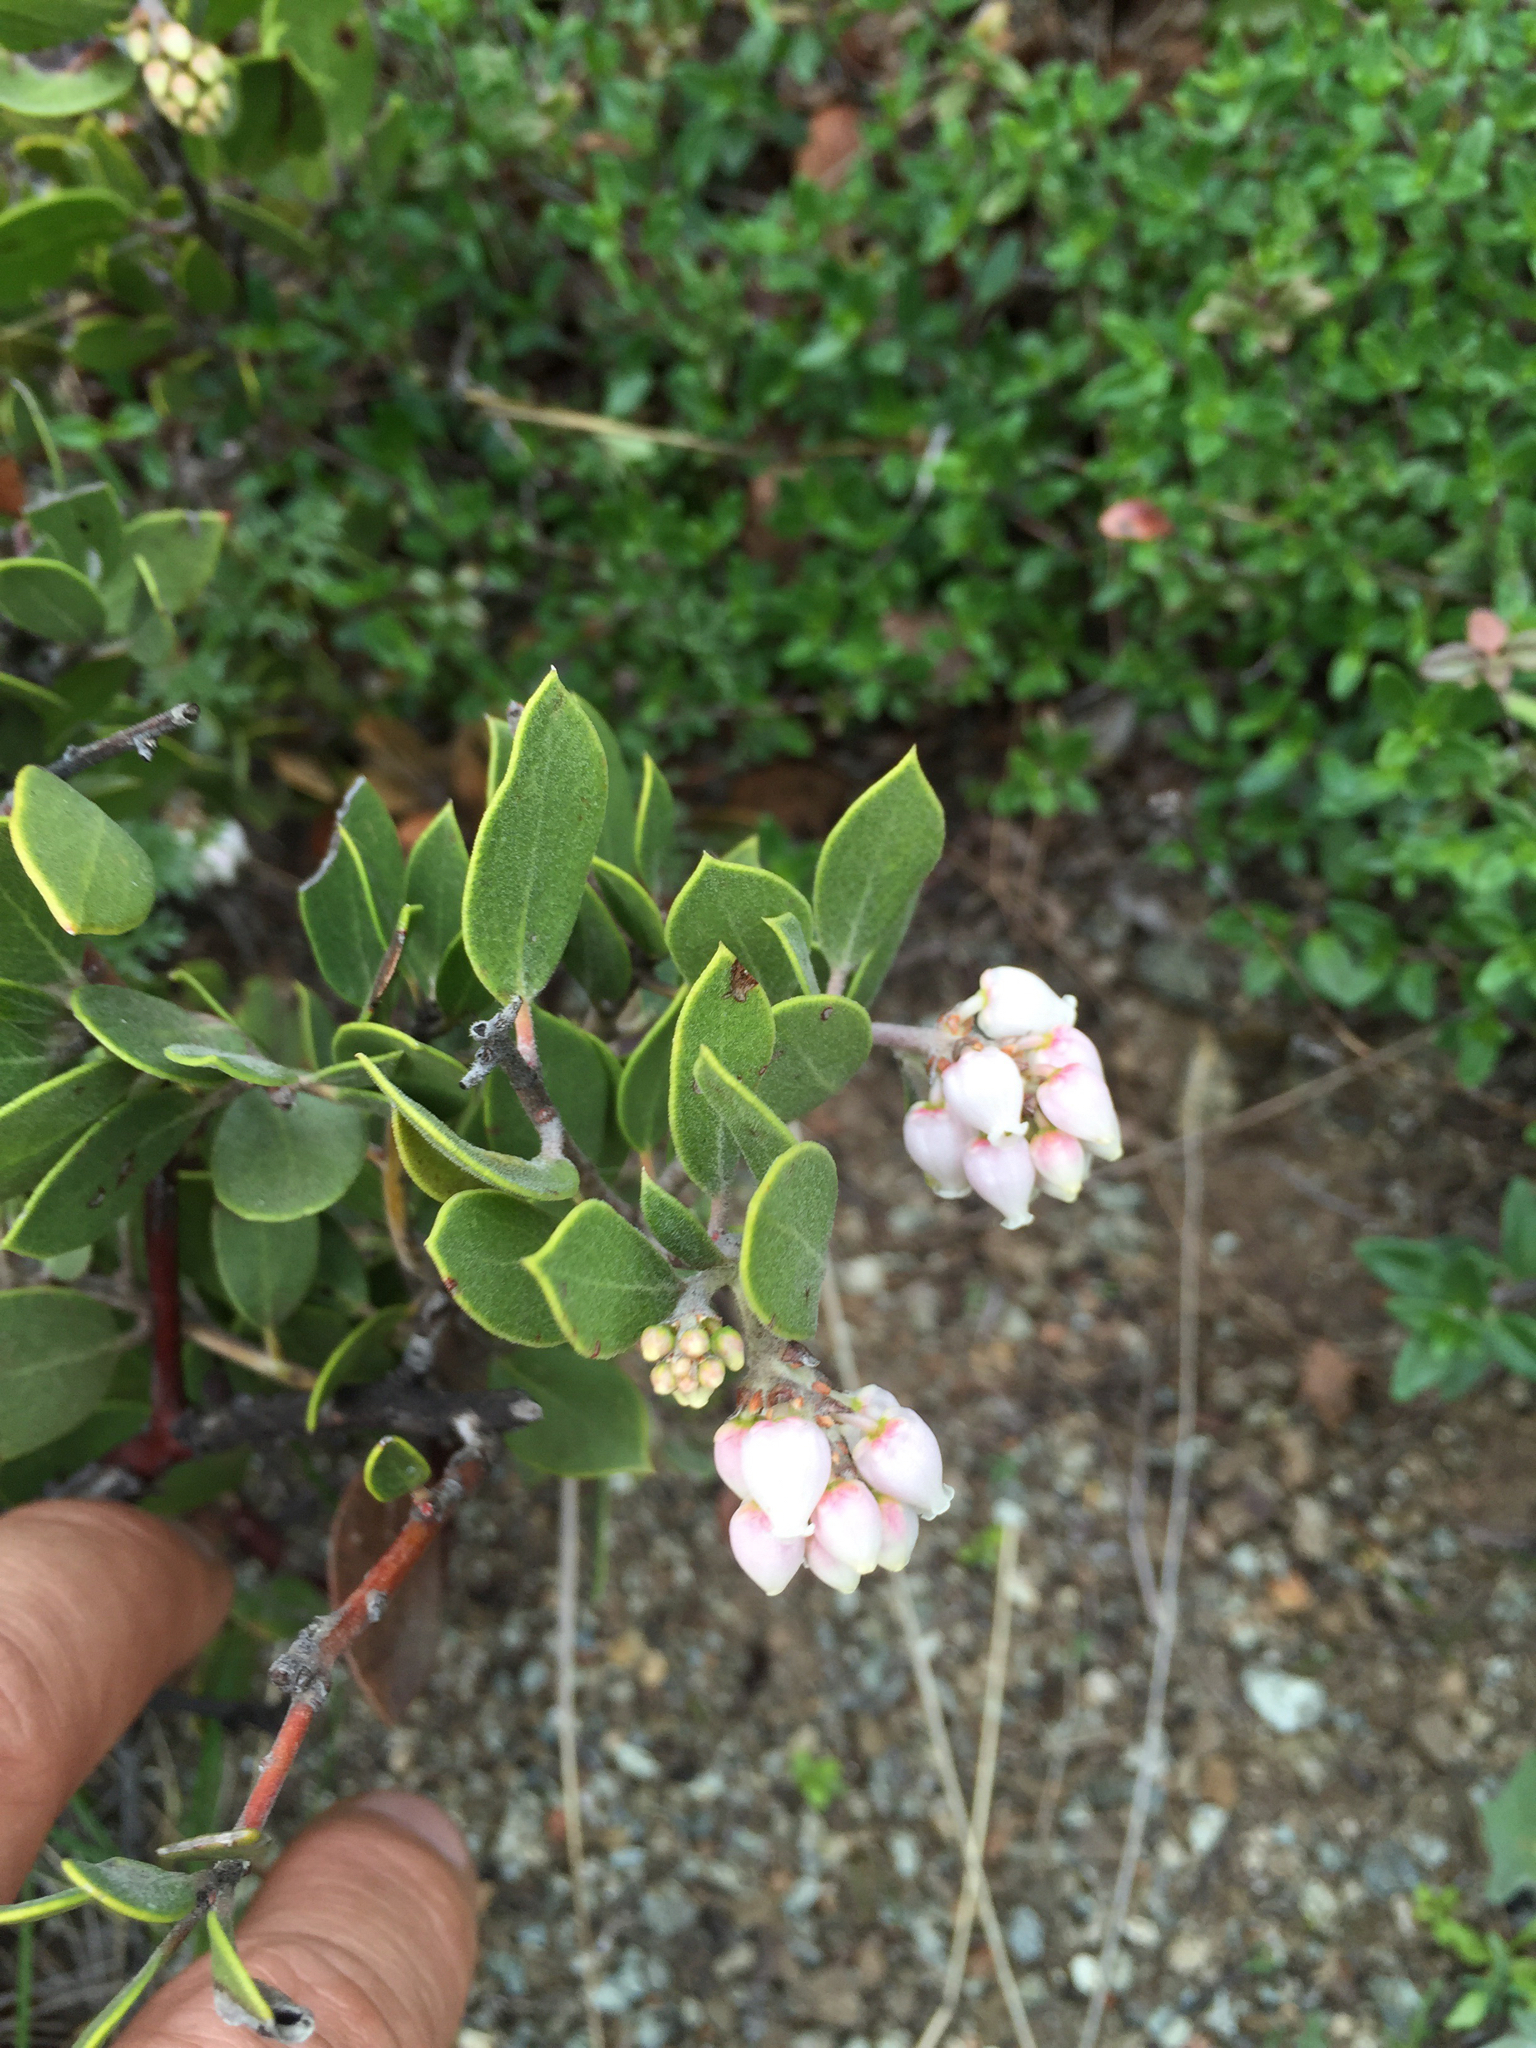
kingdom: Plantae
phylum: Tracheophyta
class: Magnoliopsida
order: Ericales
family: Ericaceae
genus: Arctostaphylos
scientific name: Arctostaphylos montana
